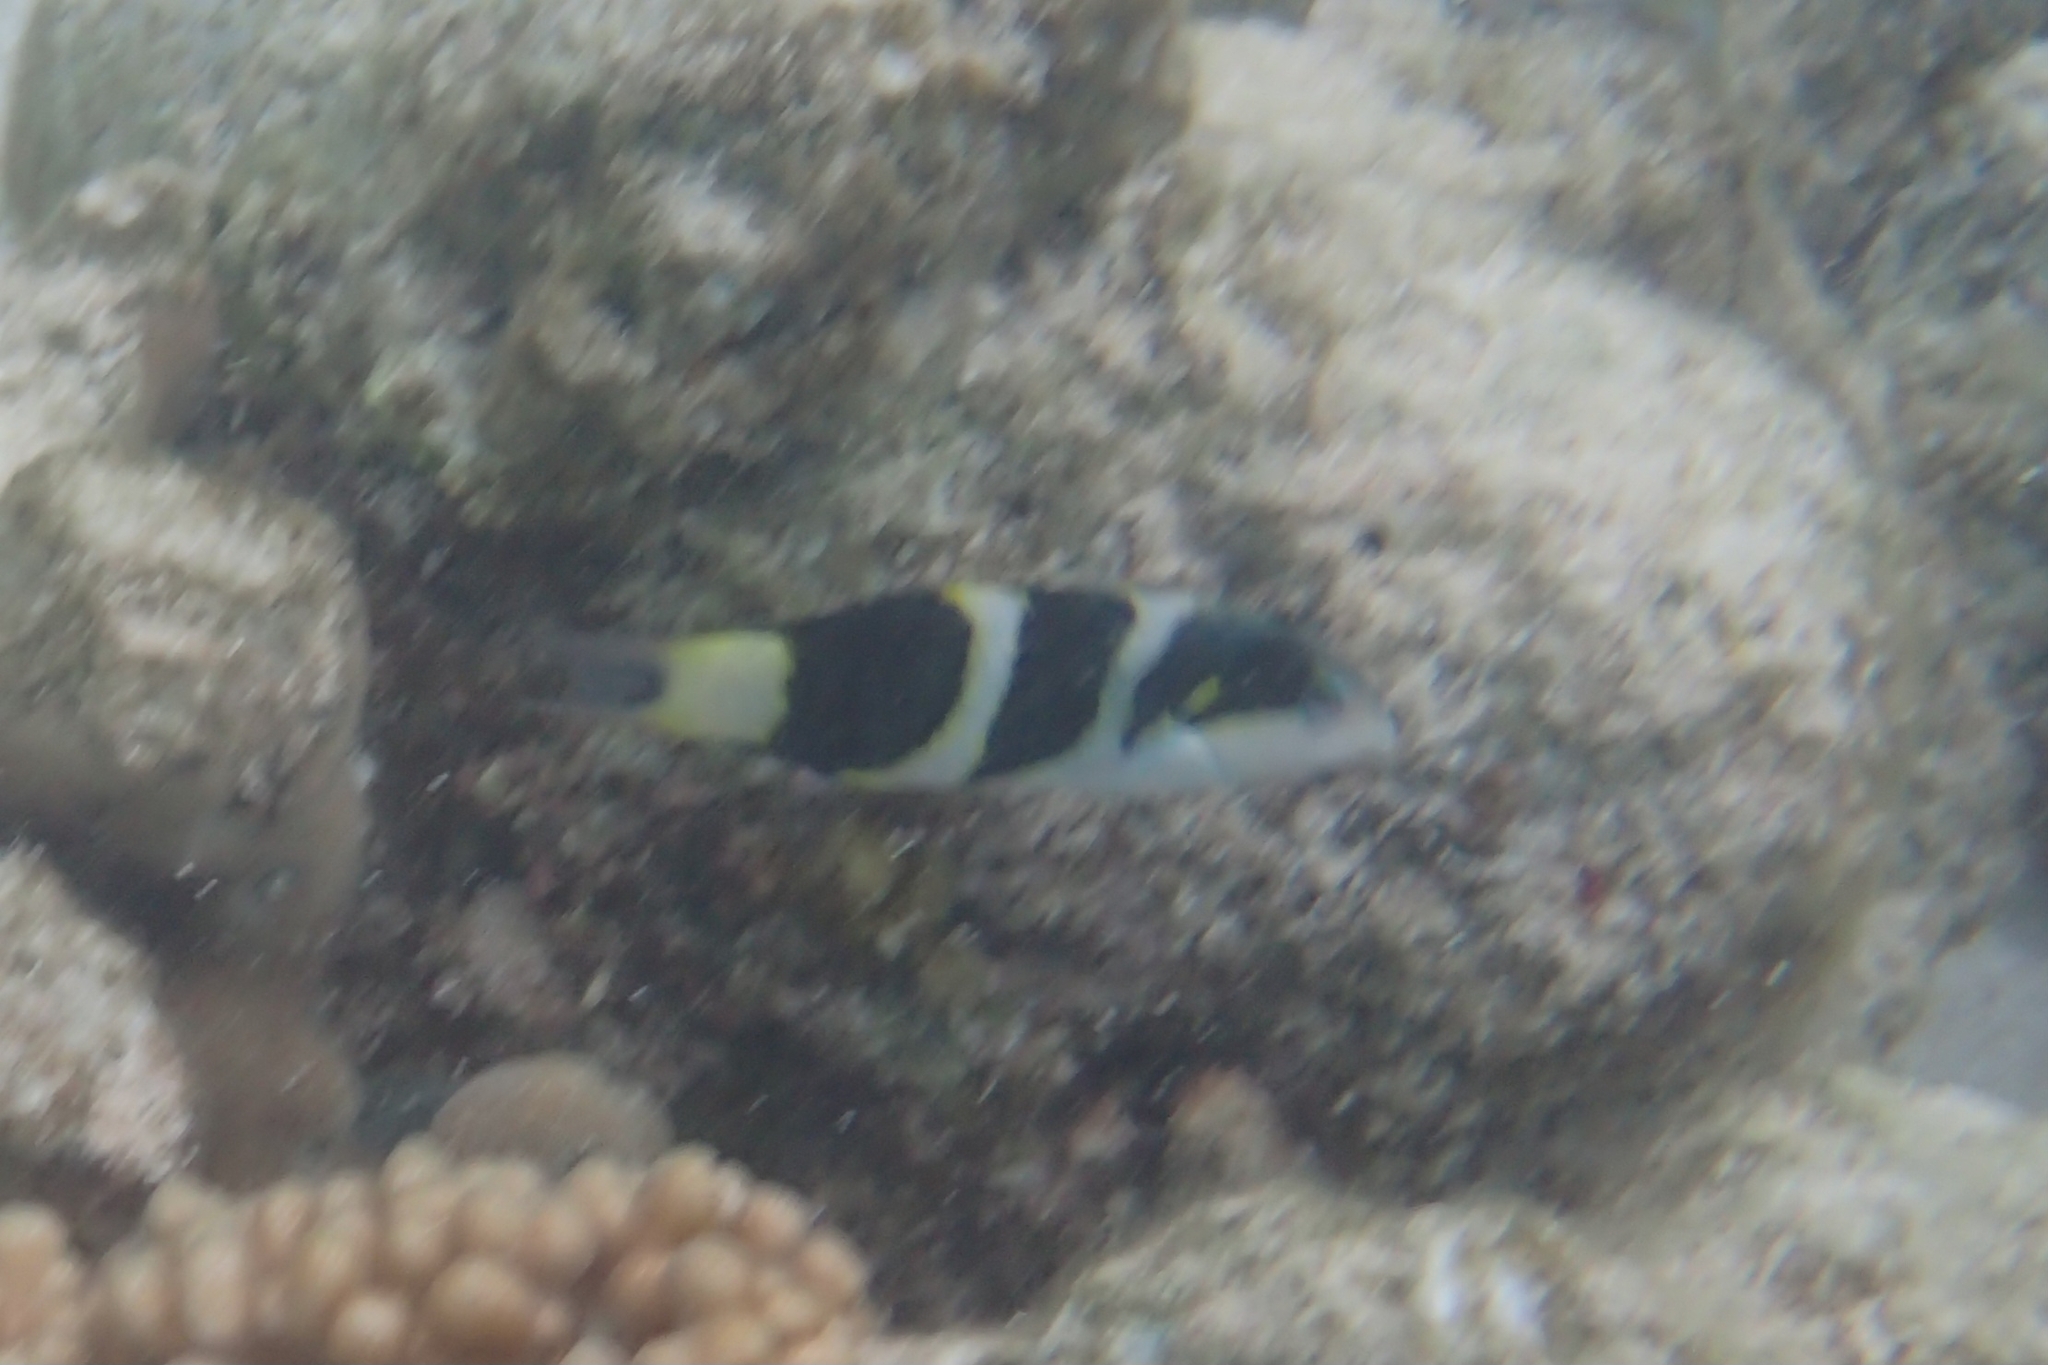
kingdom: Animalia
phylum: Chordata
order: Perciformes
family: Labridae
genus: Thalassoma
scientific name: Thalassoma nigrofasciatum
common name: Black-barred wrasse
